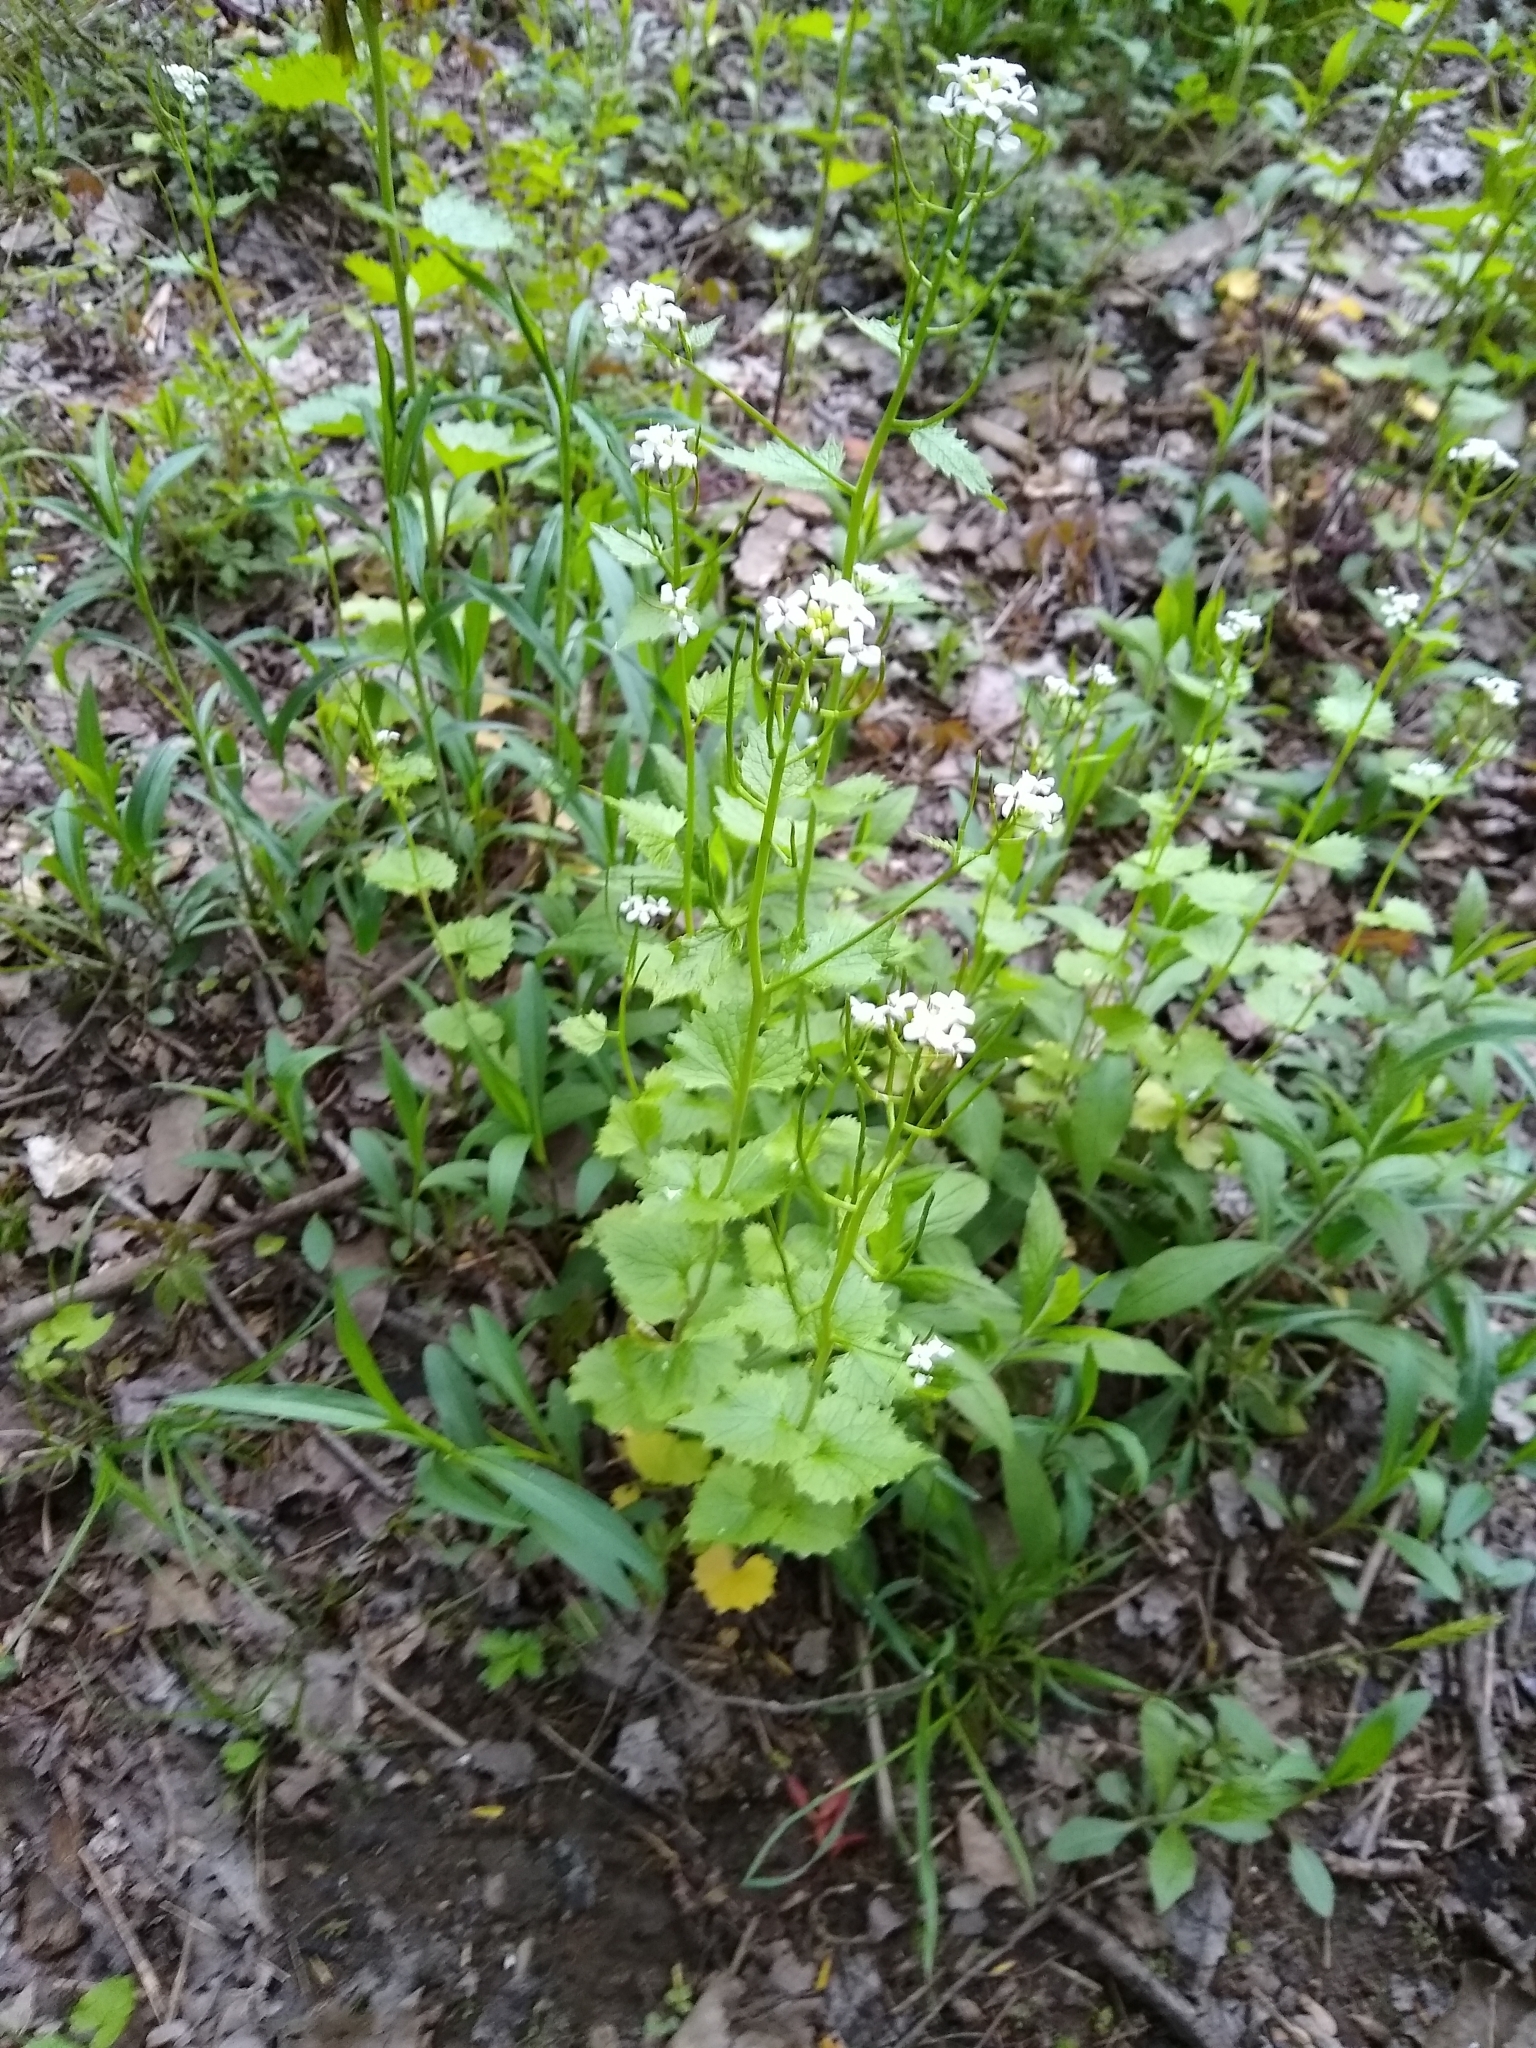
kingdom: Plantae
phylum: Tracheophyta
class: Magnoliopsida
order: Brassicales
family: Brassicaceae
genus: Alliaria
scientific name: Alliaria petiolata
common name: Garlic mustard
